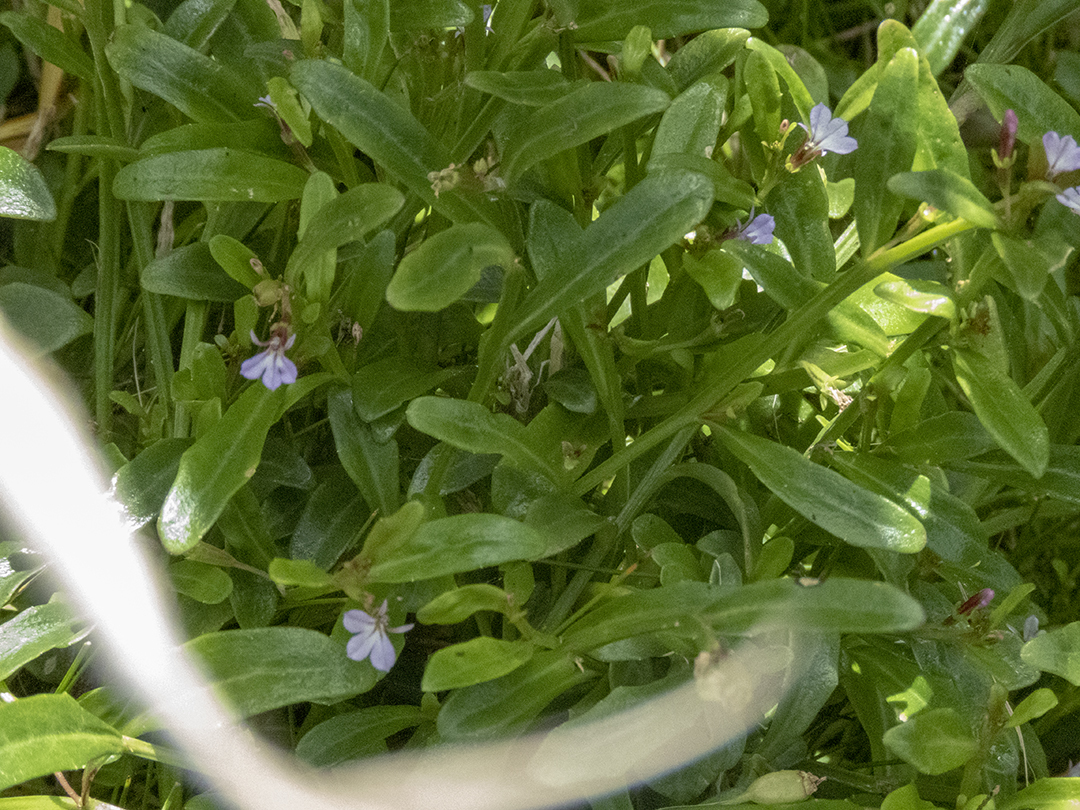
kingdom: Plantae
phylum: Tracheophyta
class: Magnoliopsida
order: Asterales
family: Campanulaceae
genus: Lobelia
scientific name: Lobelia anceps
